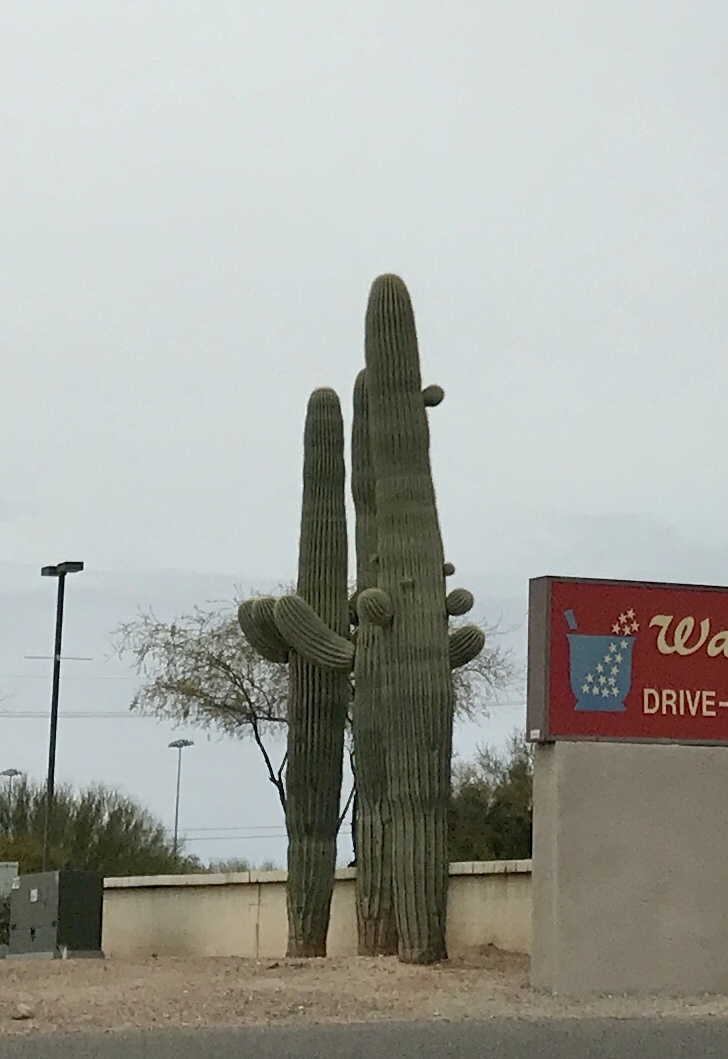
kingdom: Plantae
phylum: Tracheophyta
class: Magnoliopsida
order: Caryophyllales
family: Cactaceae
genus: Carnegiea
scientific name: Carnegiea gigantea
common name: Saguaro
